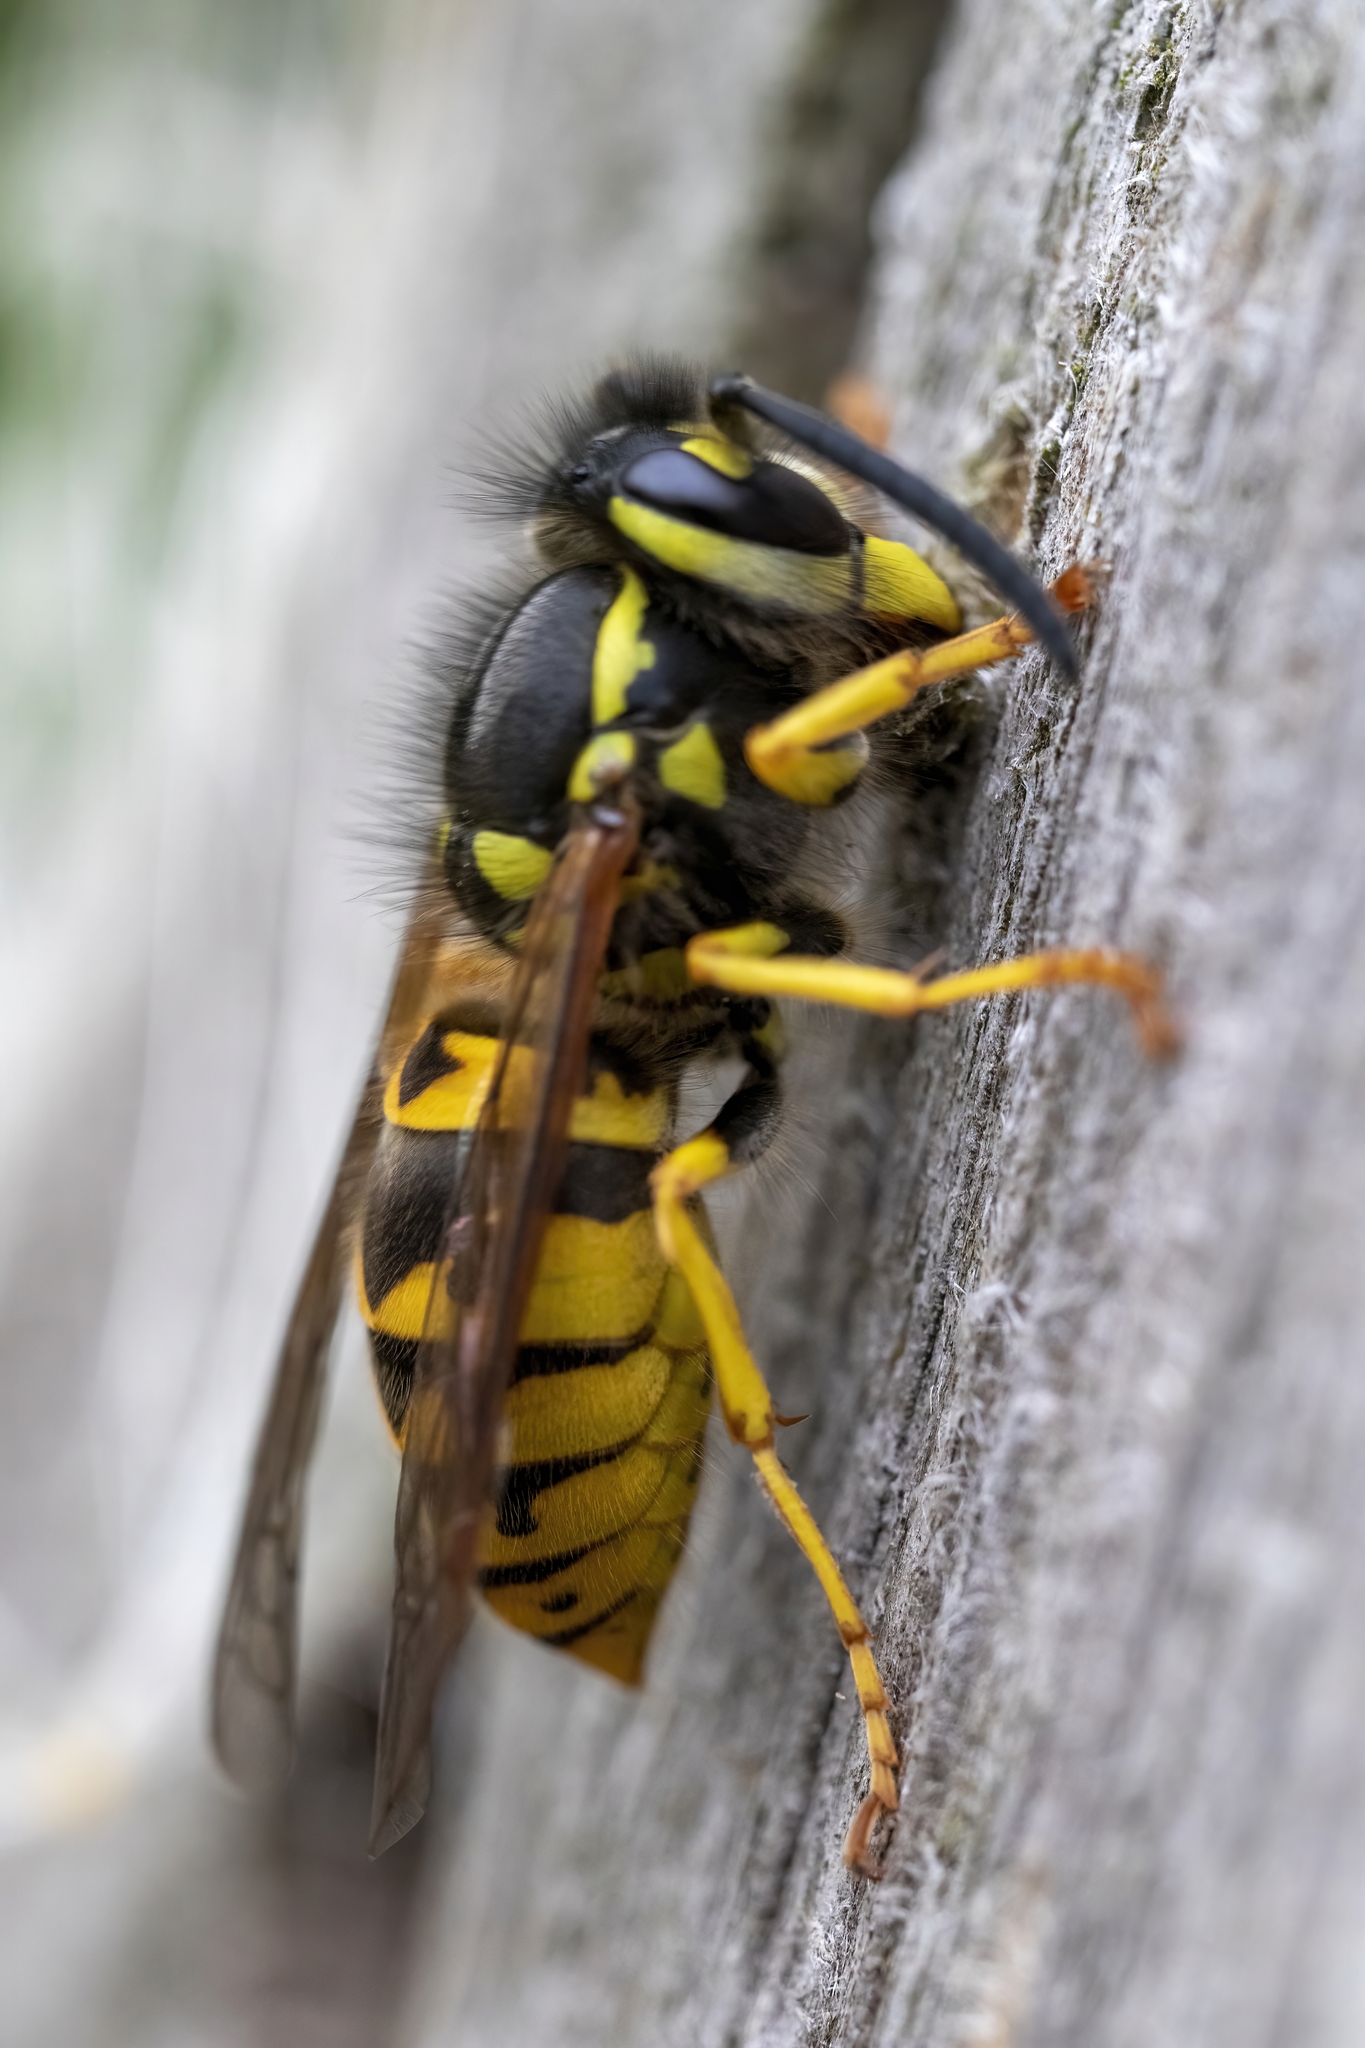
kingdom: Animalia
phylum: Arthropoda
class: Insecta
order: Hymenoptera
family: Vespidae
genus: Vespula
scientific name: Vespula germanica
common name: German wasp
